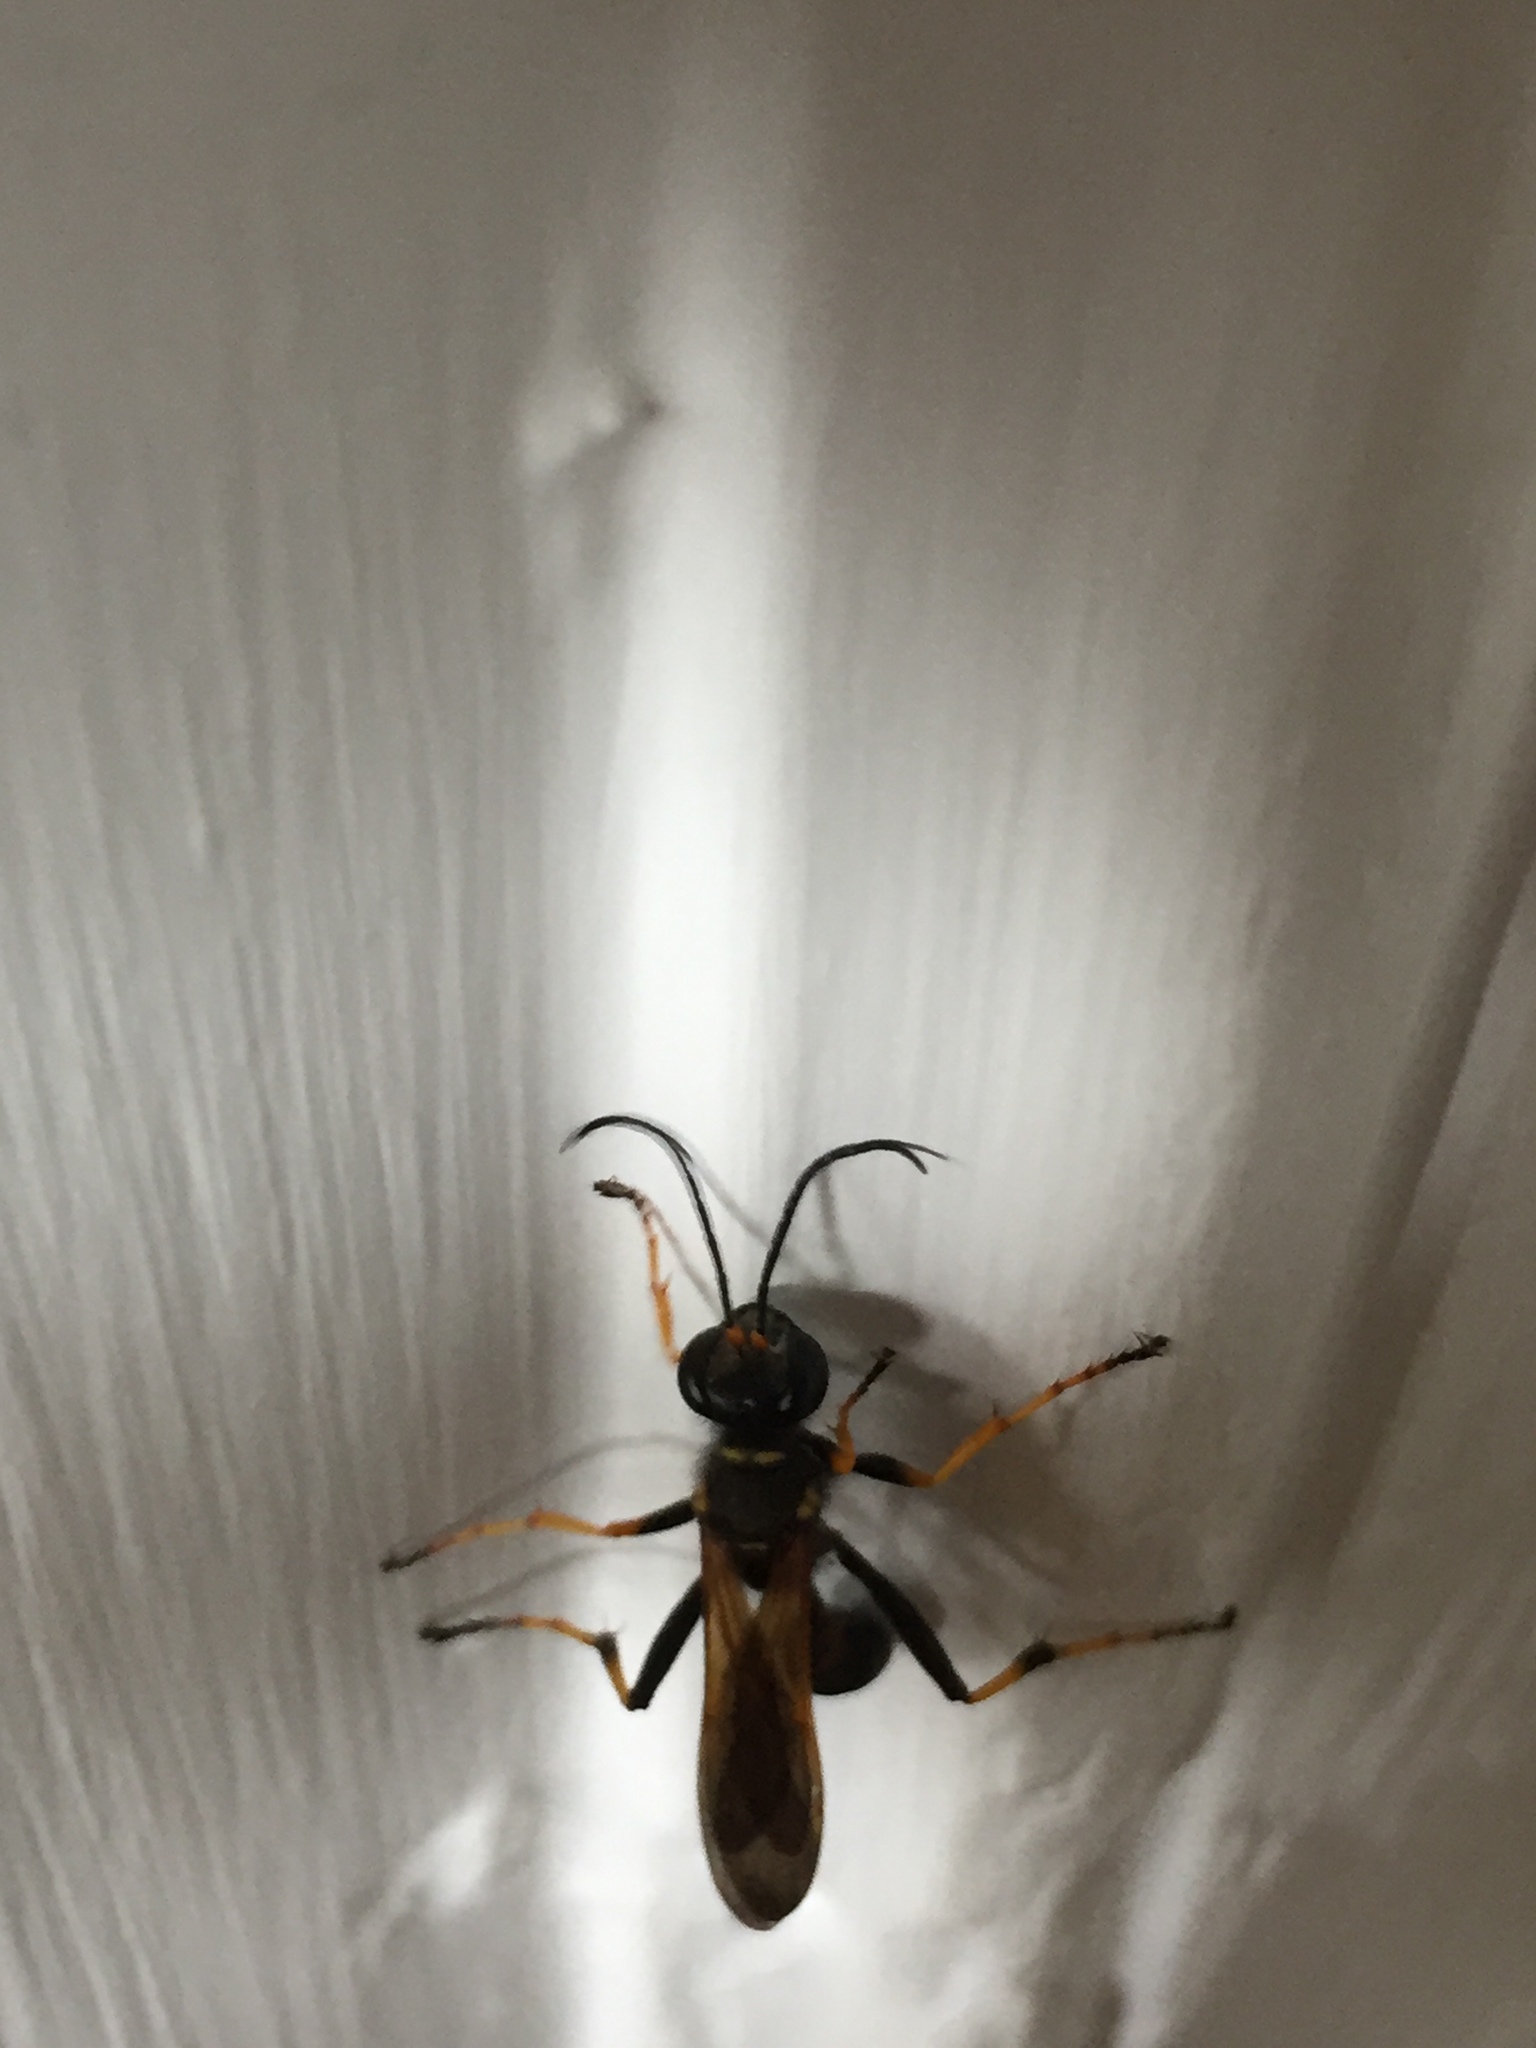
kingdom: Animalia
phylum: Arthropoda
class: Insecta
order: Hymenoptera
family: Sphecidae
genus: Sceliphron
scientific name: Sceliphron caementarium
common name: Mud dauber
